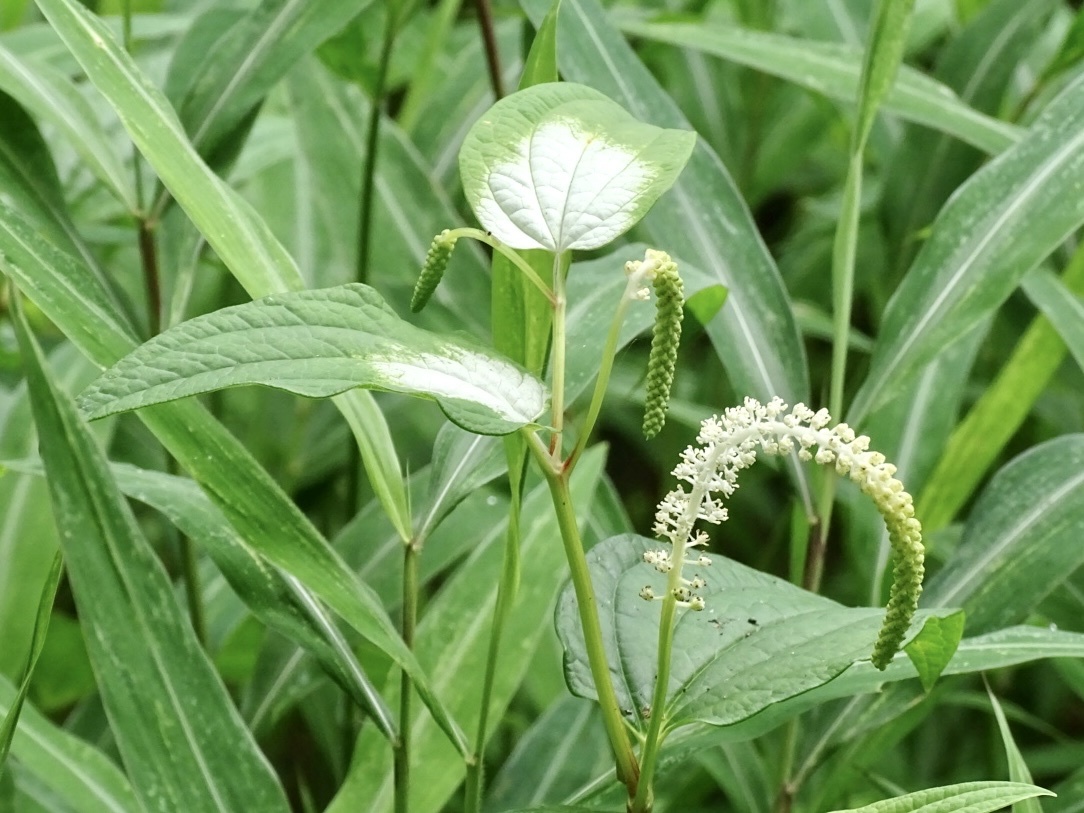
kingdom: Plantae
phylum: Tracheophyta
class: Magnoliopsida
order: Piperales
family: Saururaceae
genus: Saururus
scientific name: Saururus chinensis
